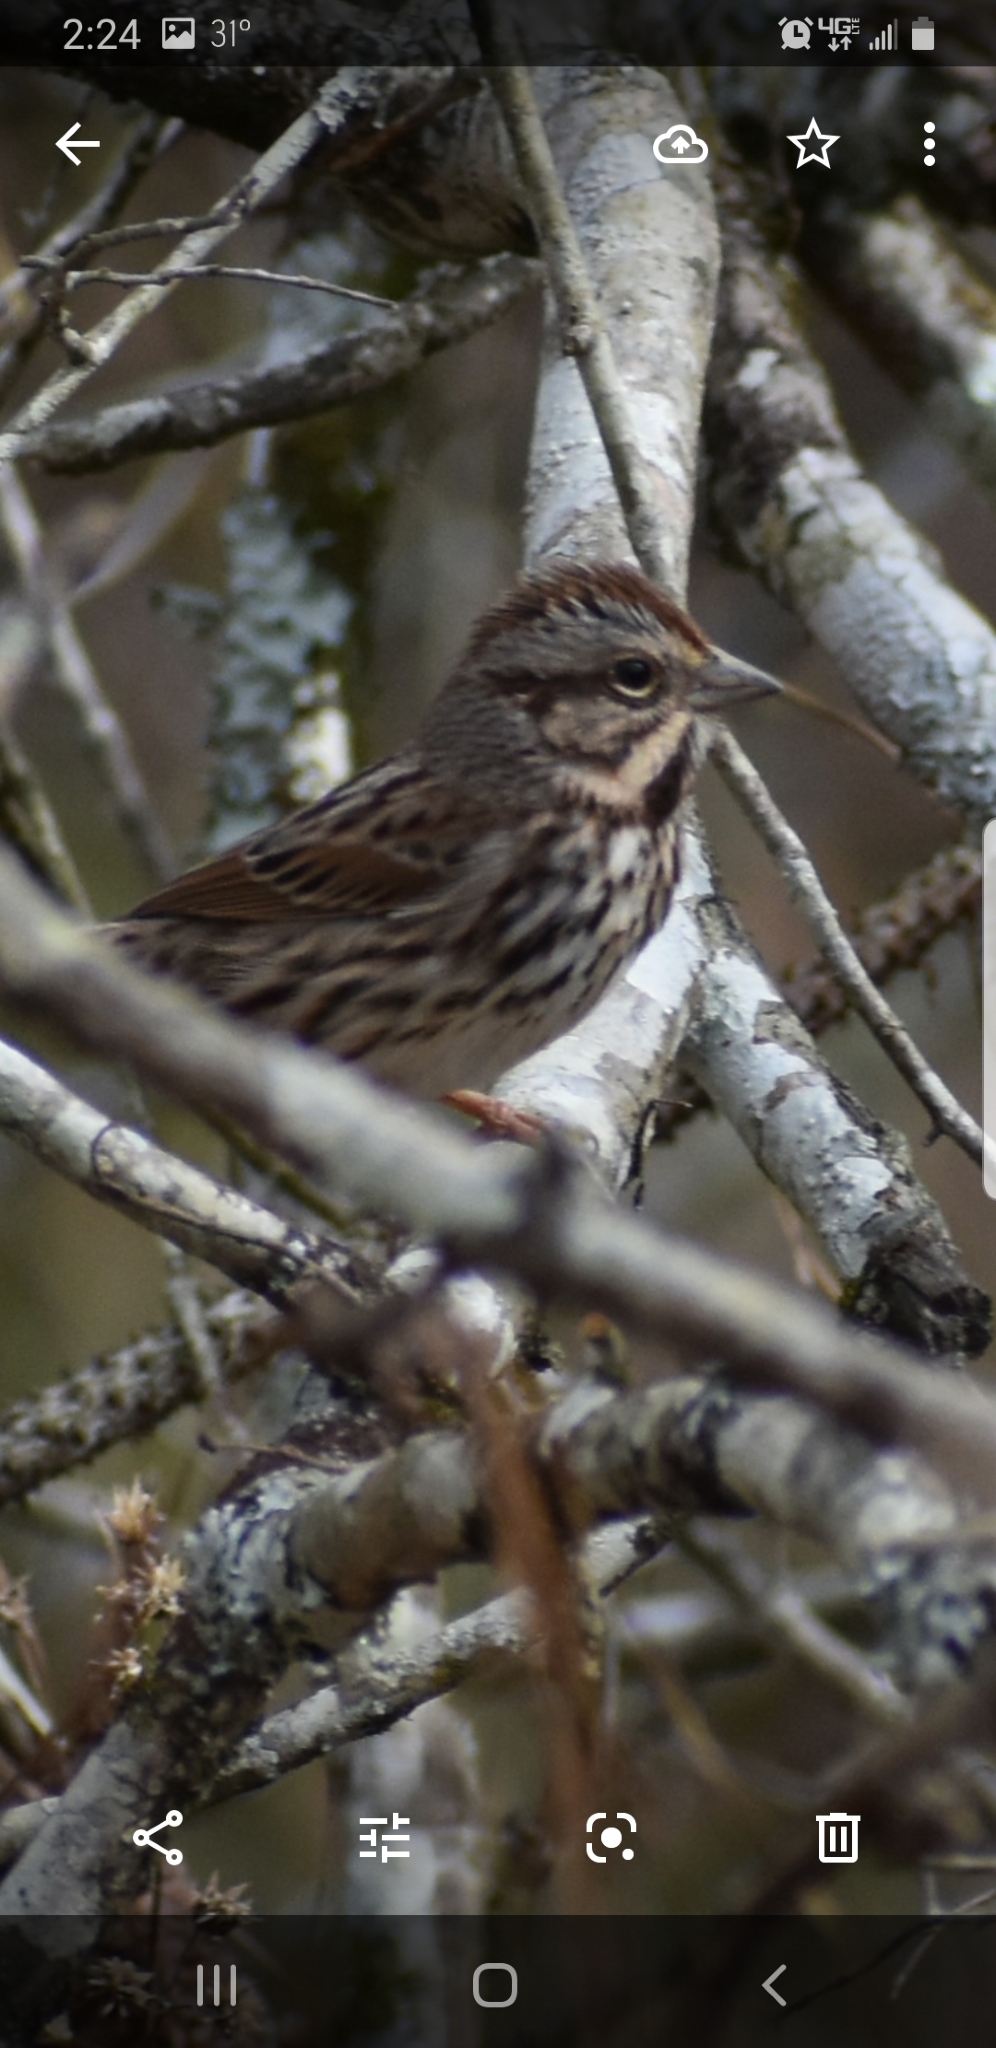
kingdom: Animalia
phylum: Chordata
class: Aves
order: Passeriformes
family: Passerellidae
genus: Melospiza
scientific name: Melospiza melodia
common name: Song sparrow
